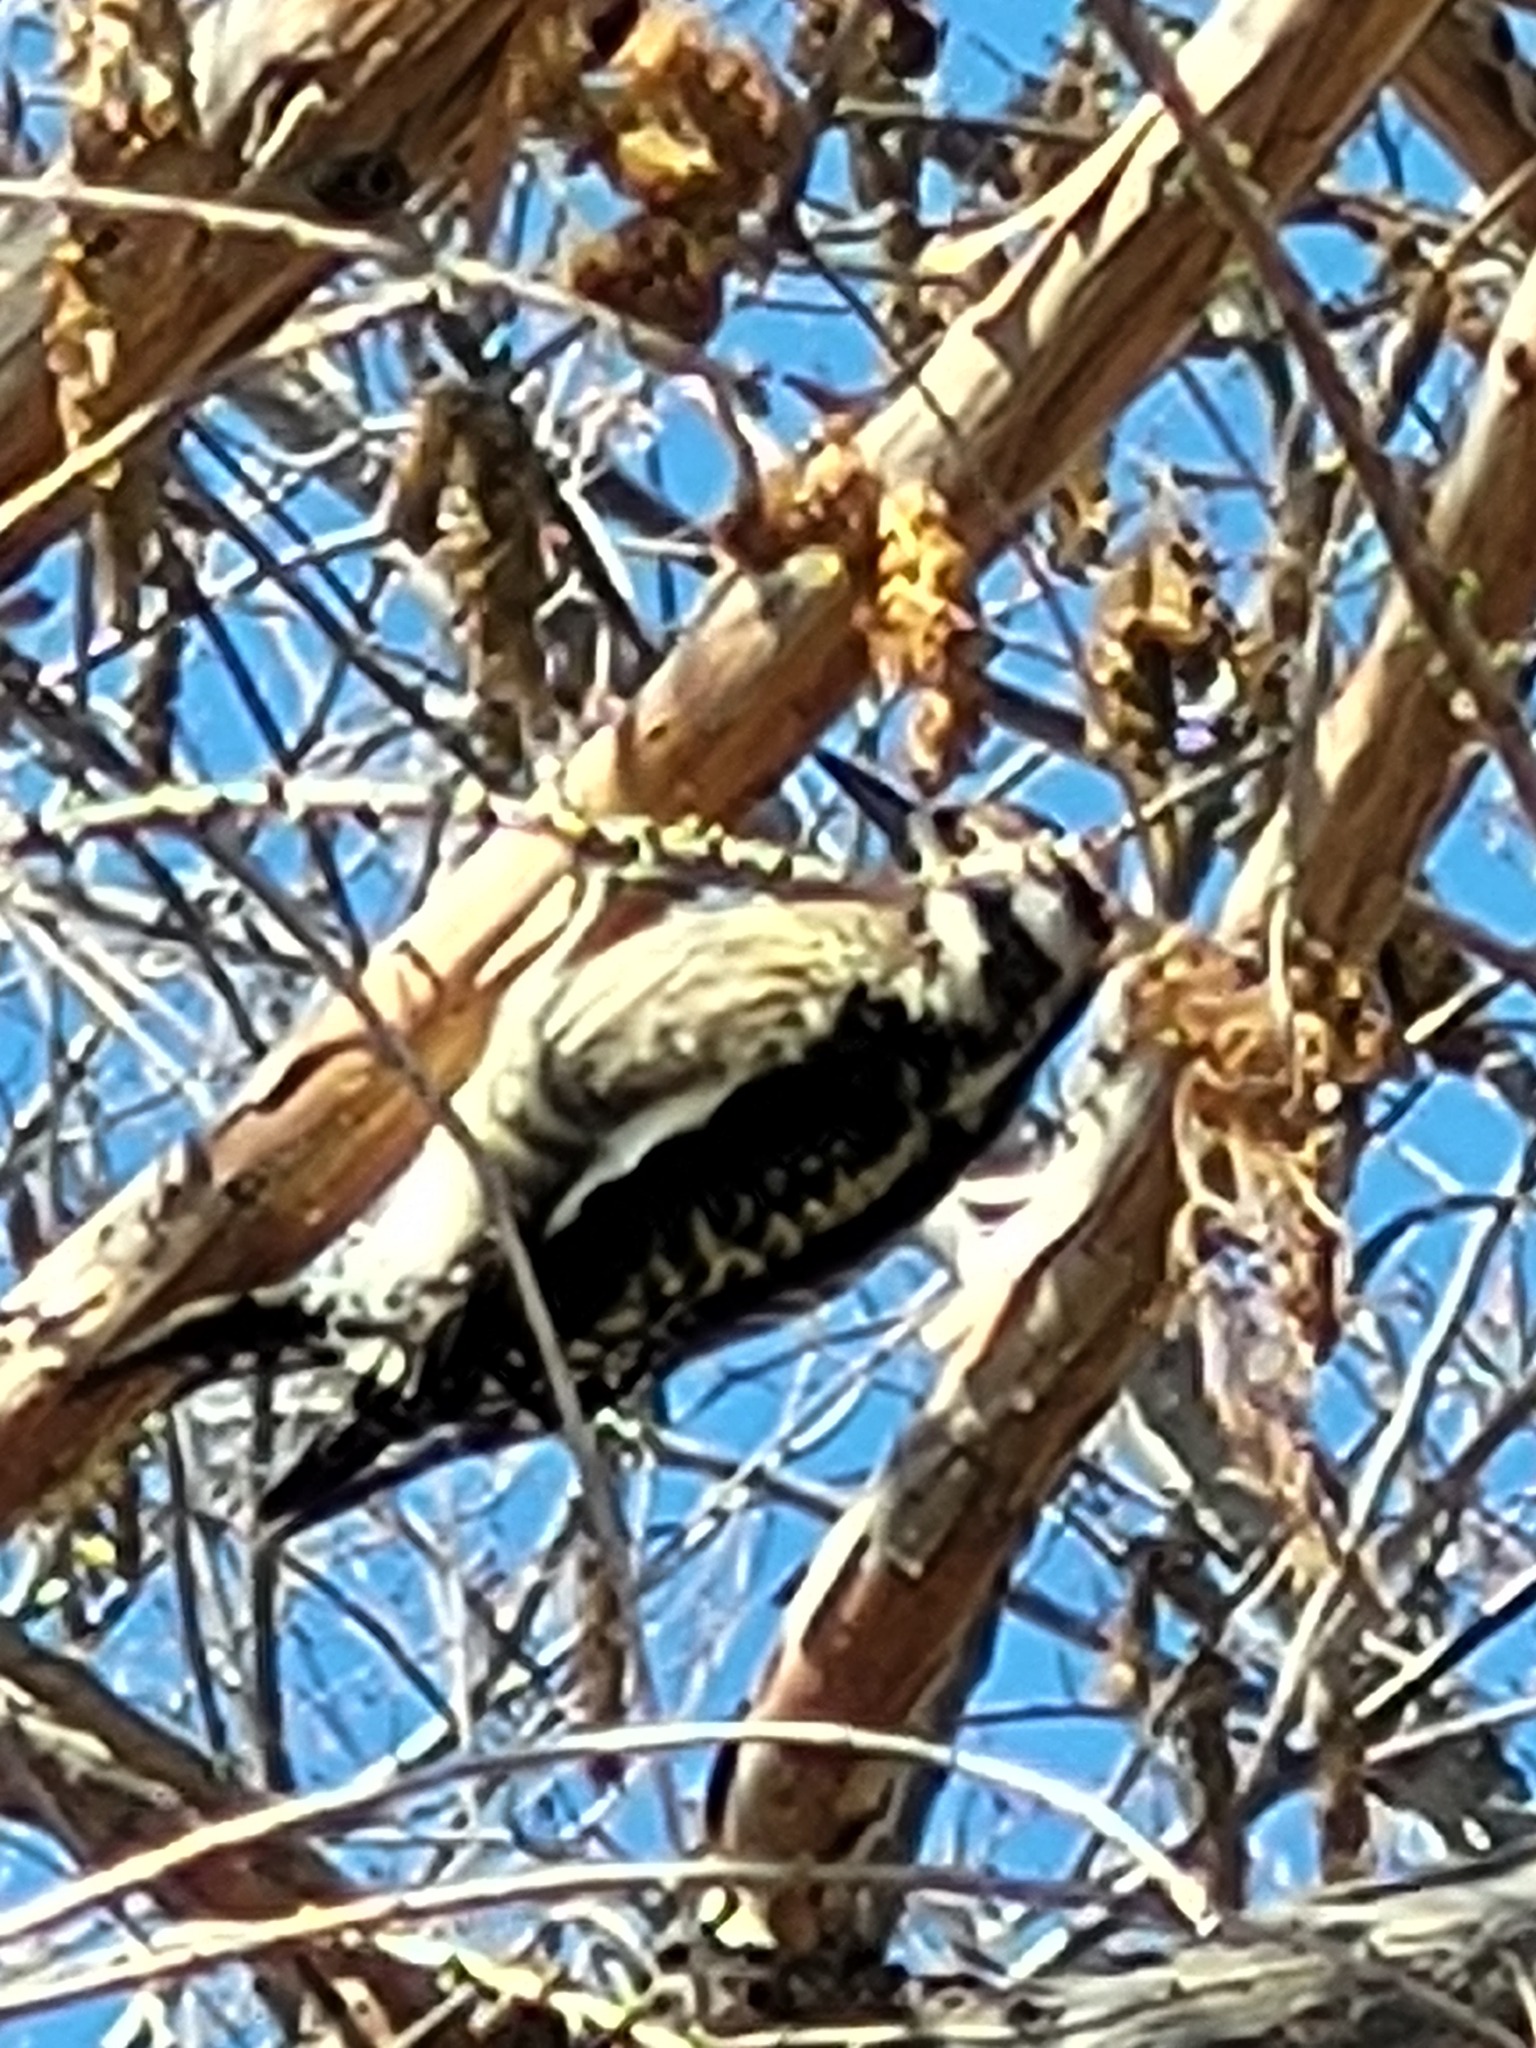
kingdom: Animalia
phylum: Chordata
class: Aves
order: Piciformes
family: Picidae
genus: Sphyrapicus
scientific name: Sphyrapicus varius
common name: Yellow-bellied sapsucker
